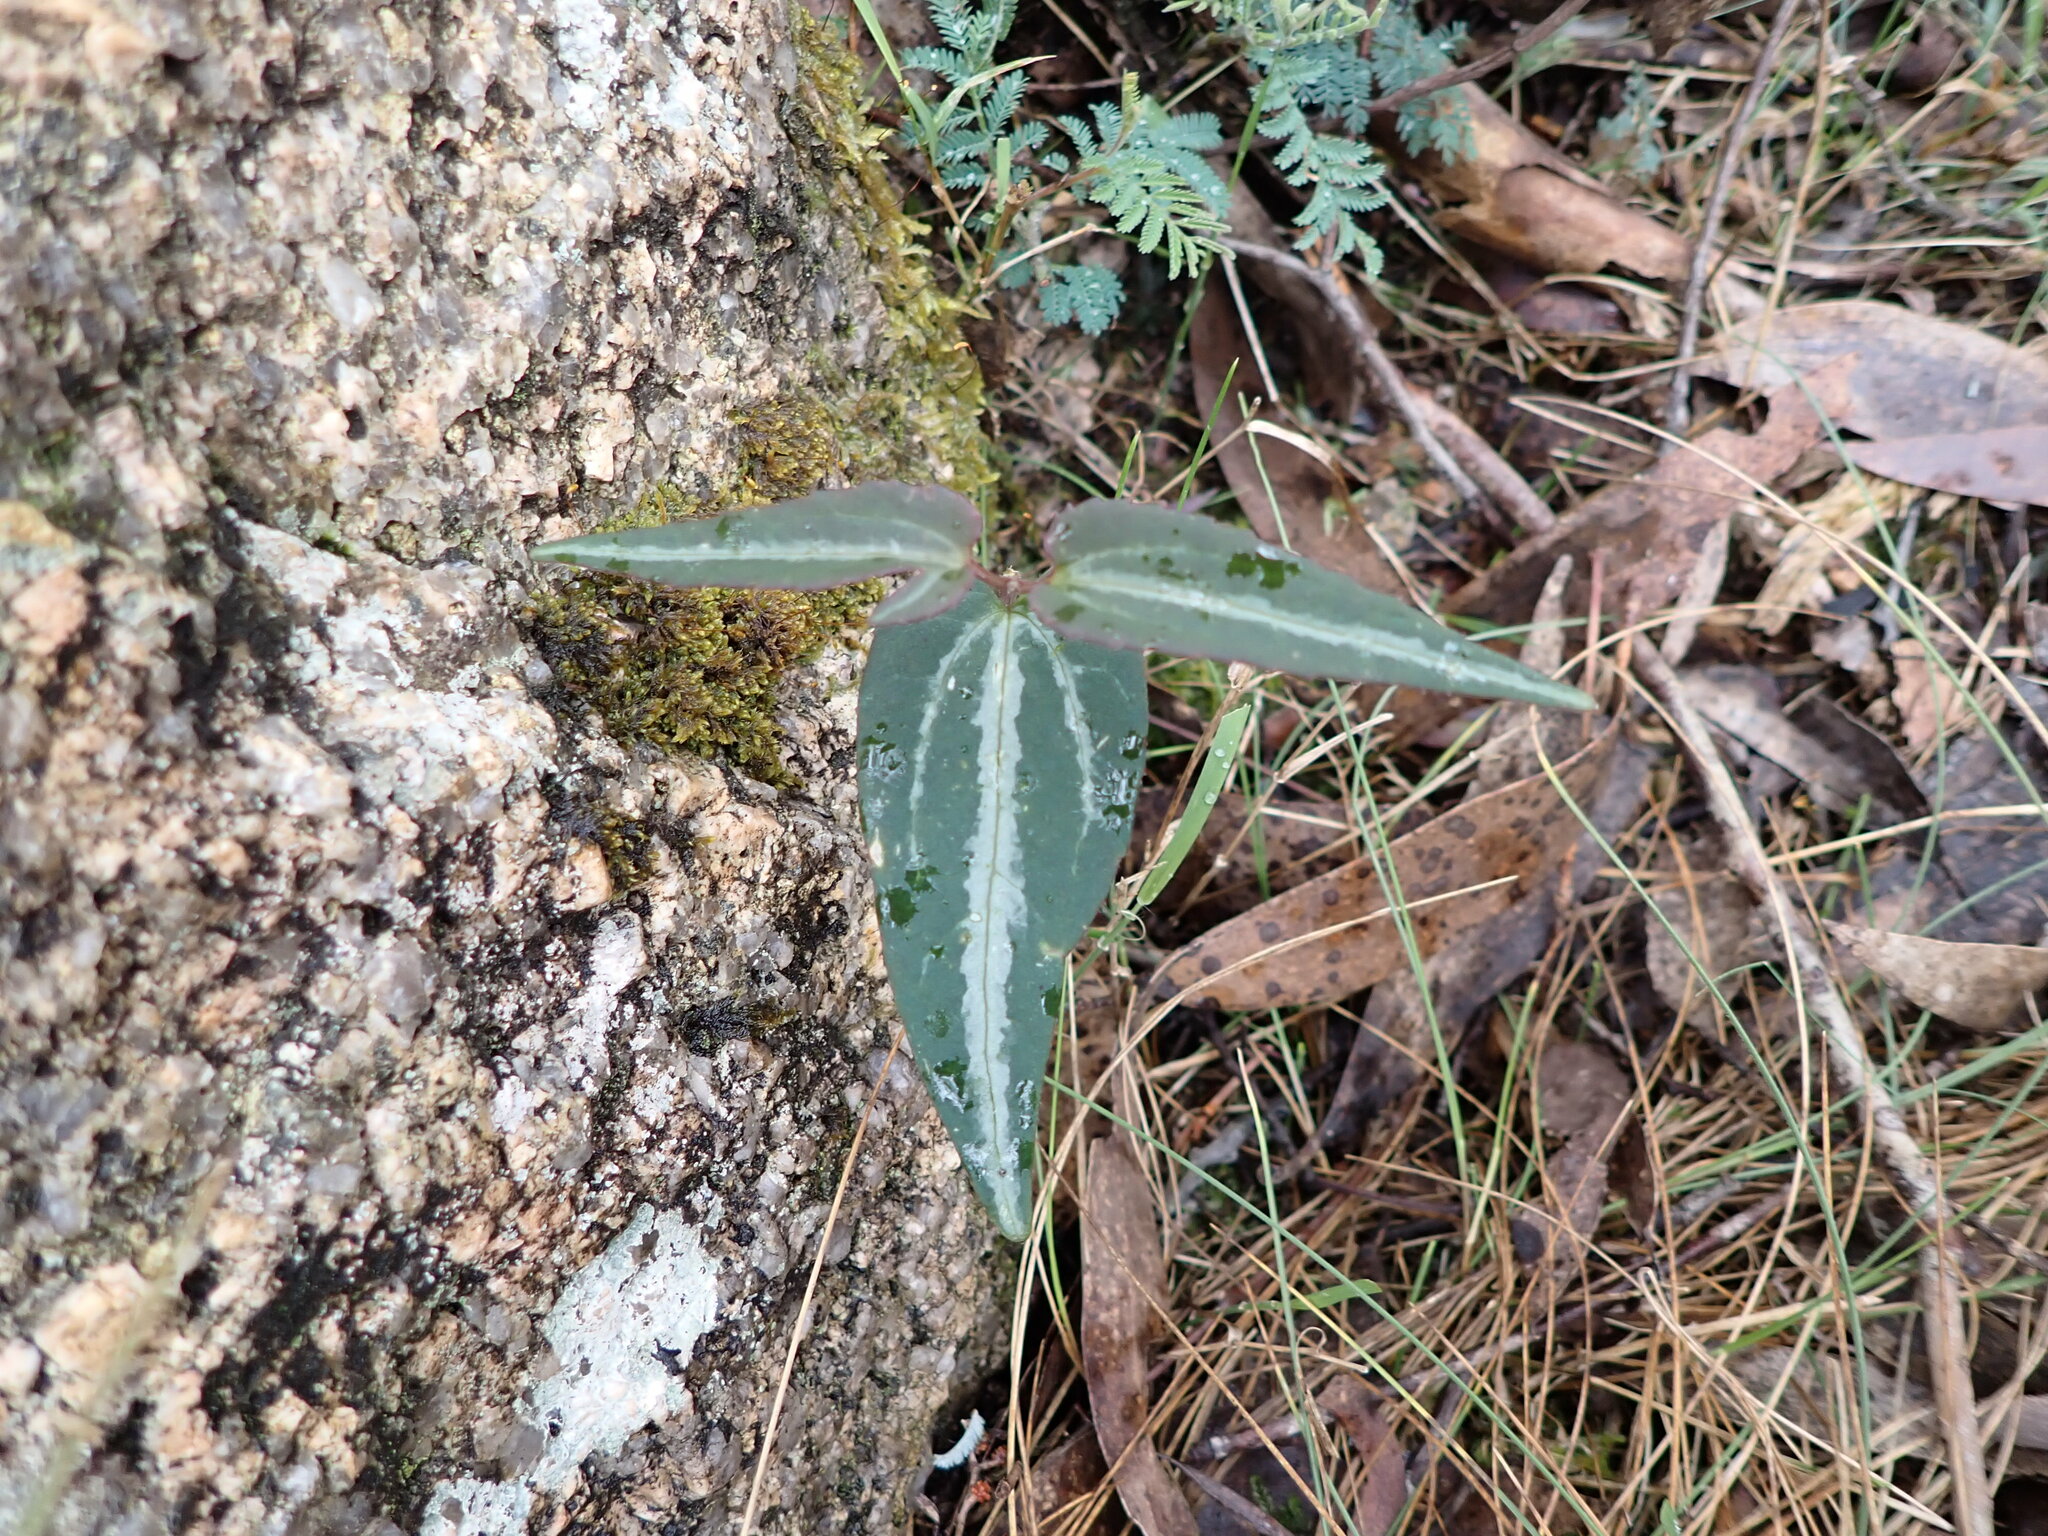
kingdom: Plantae
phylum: Tracheophyta
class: Magnoliopsida
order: Ranunculales
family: Ranunculaceae
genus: Clematis
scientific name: Clematis aristata
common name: Mountain clematis
